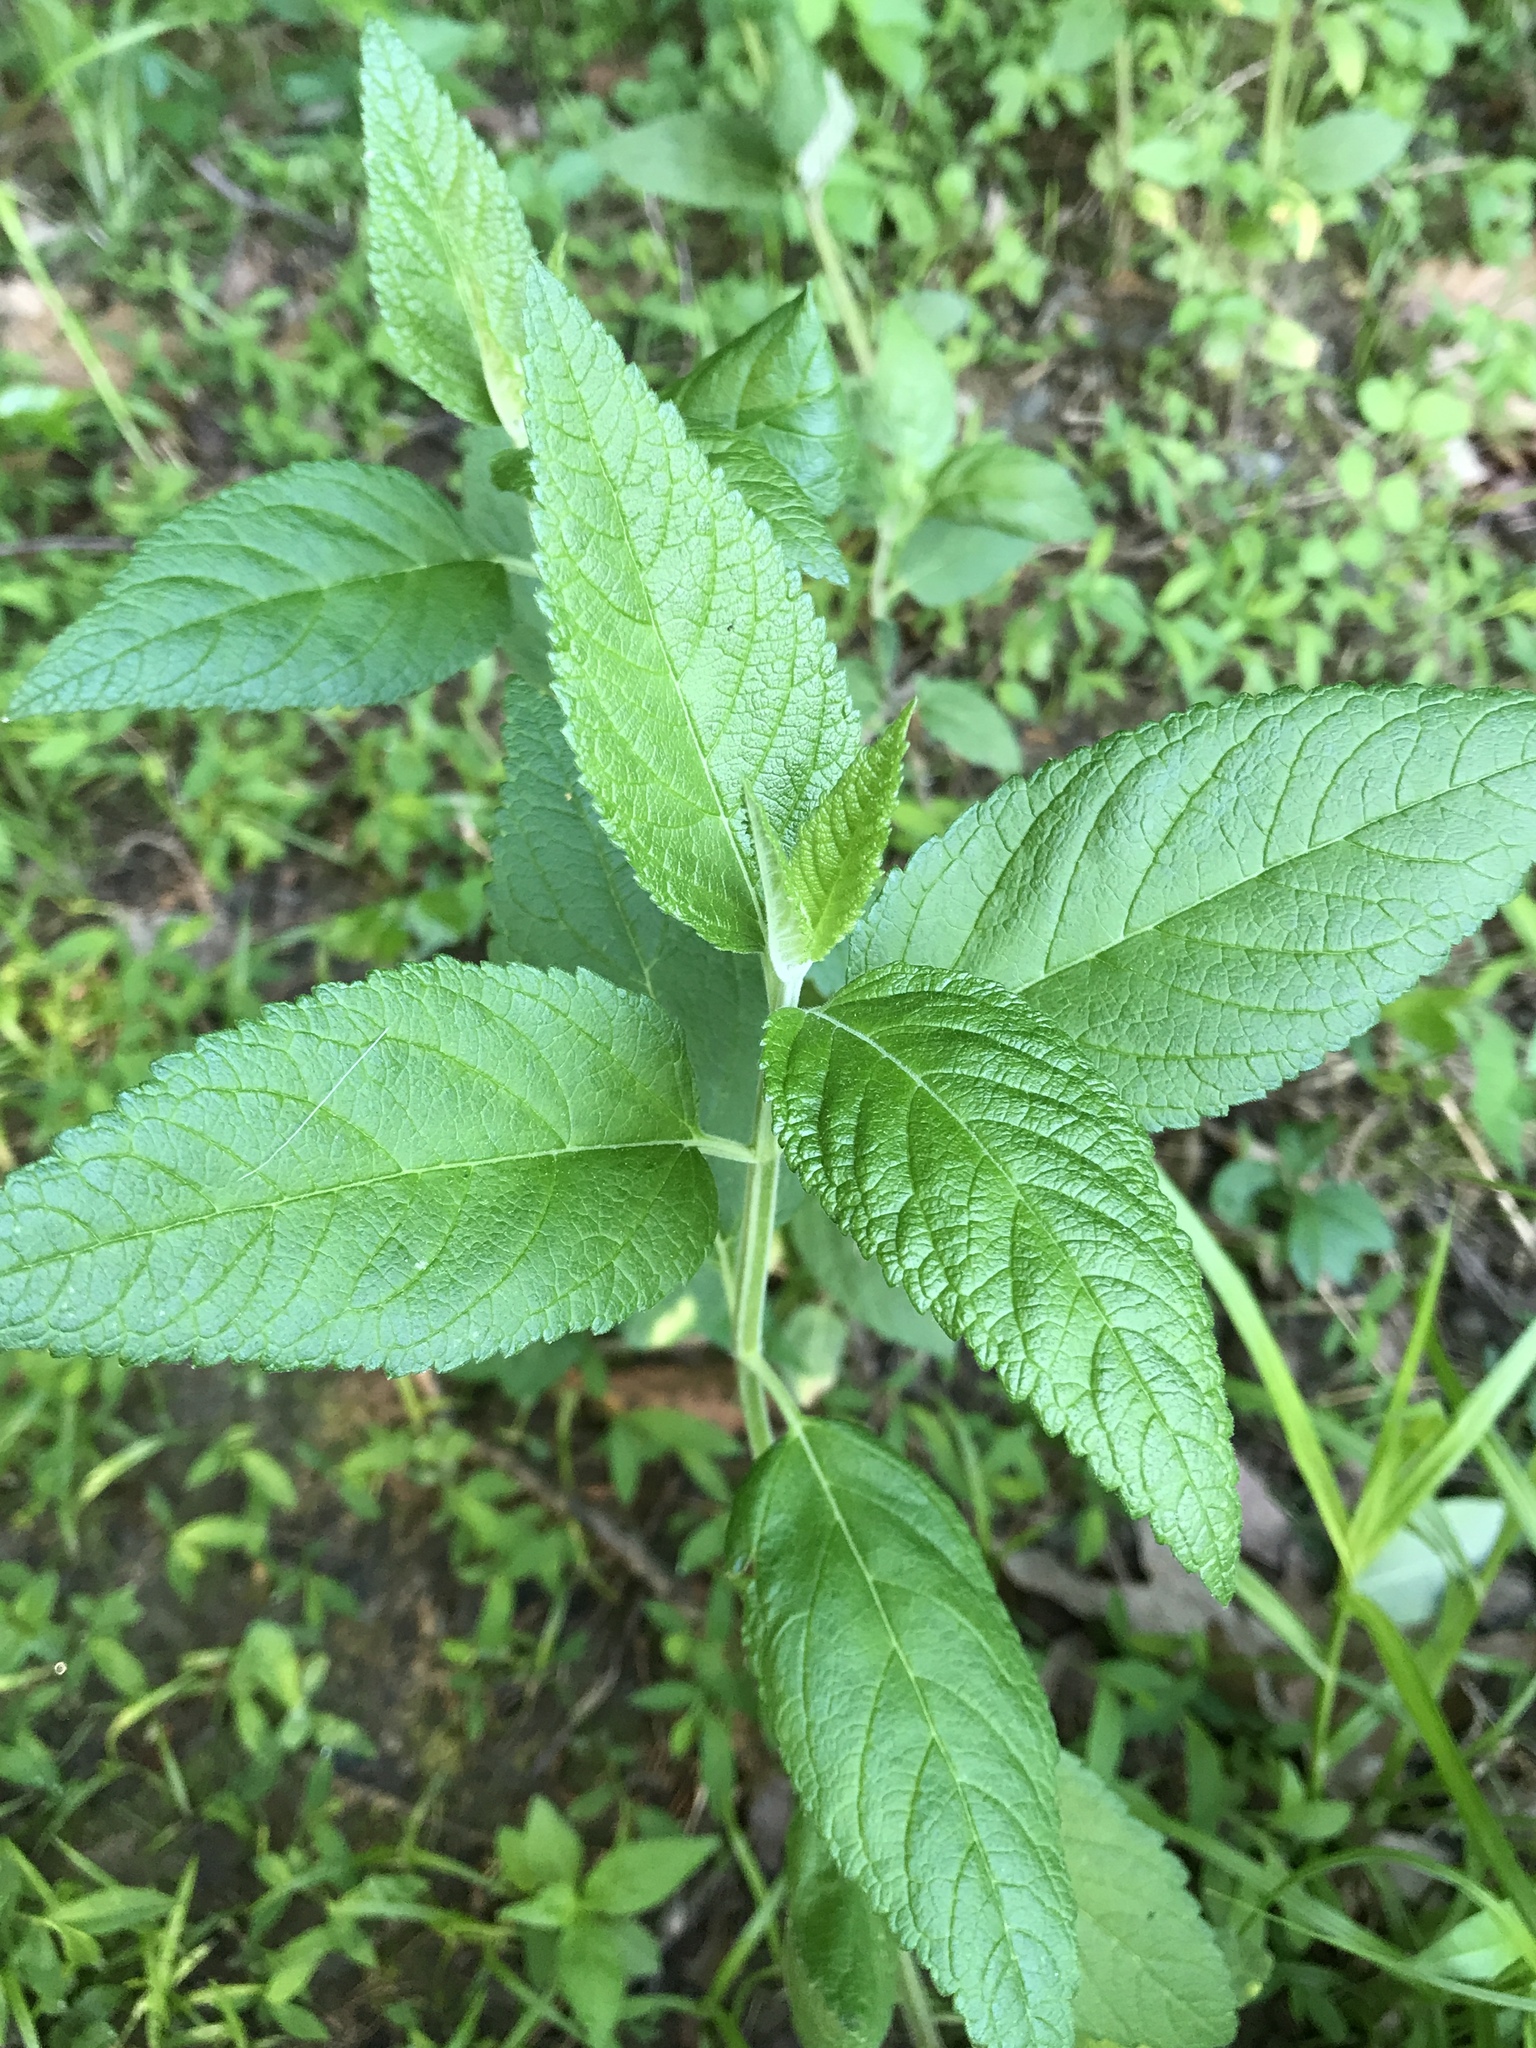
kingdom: Plantae
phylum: Tracheophyta
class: Magnoliopsida
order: Lamiales
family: Lamiaceae
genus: Teucrium
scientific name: Teucrium canadense
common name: American germander
